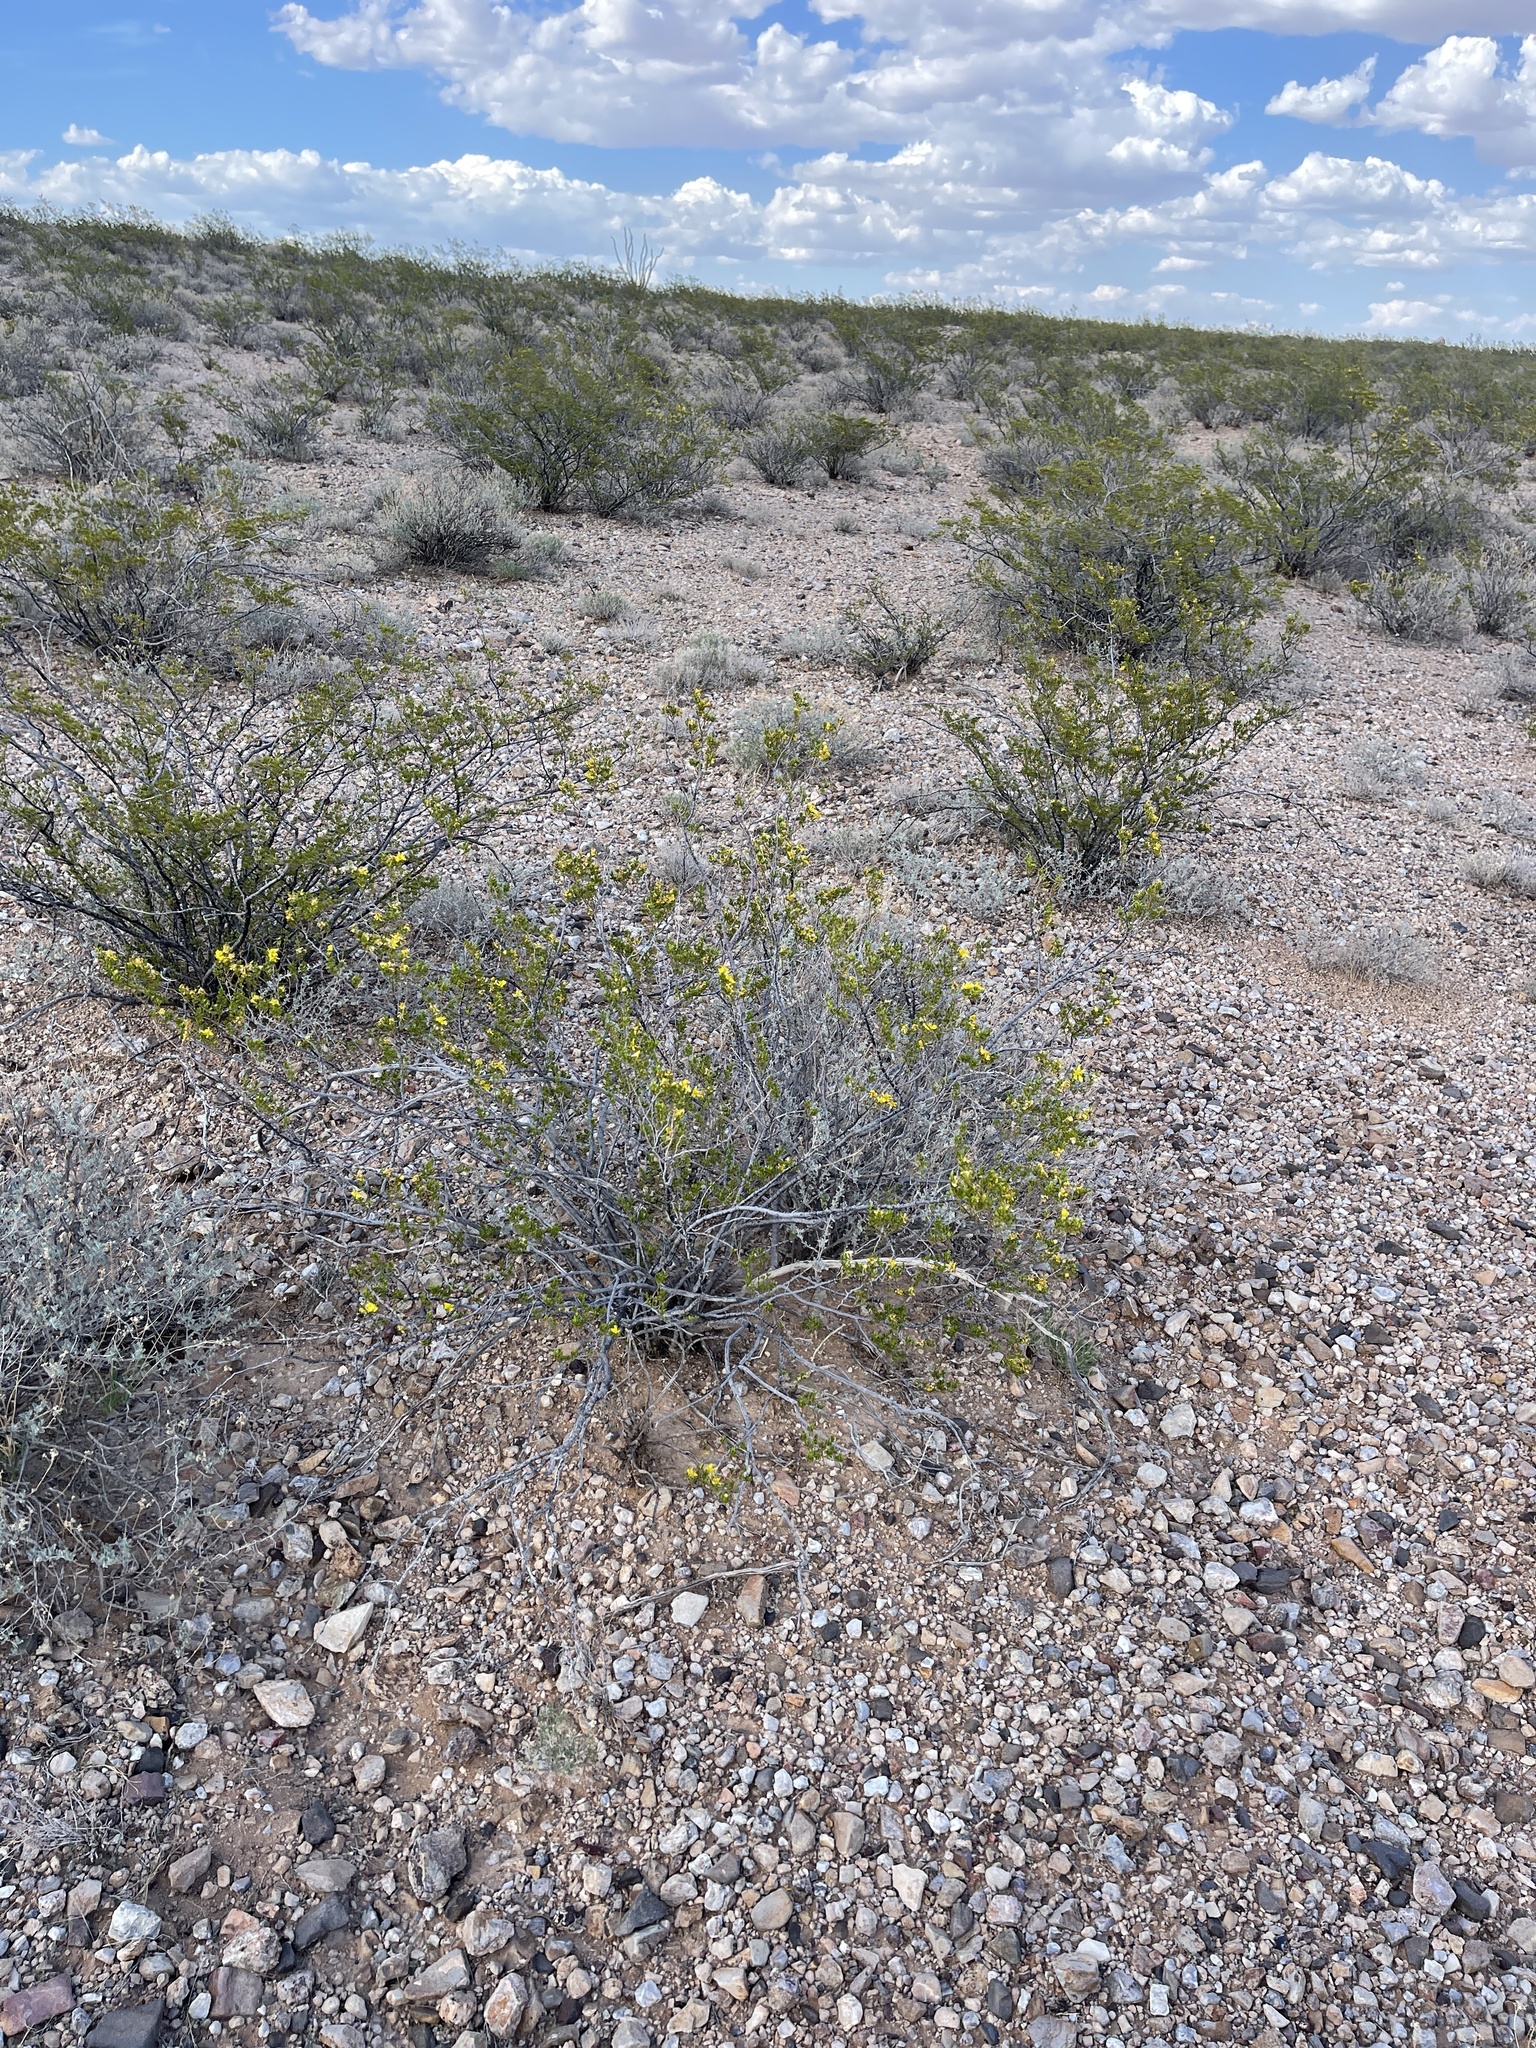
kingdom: Plantae
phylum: Tracheophyta
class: Magnoliopsida
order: Zygophyllales
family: Zygophyllaceae
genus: Larrea
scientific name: Larrea tridentata
